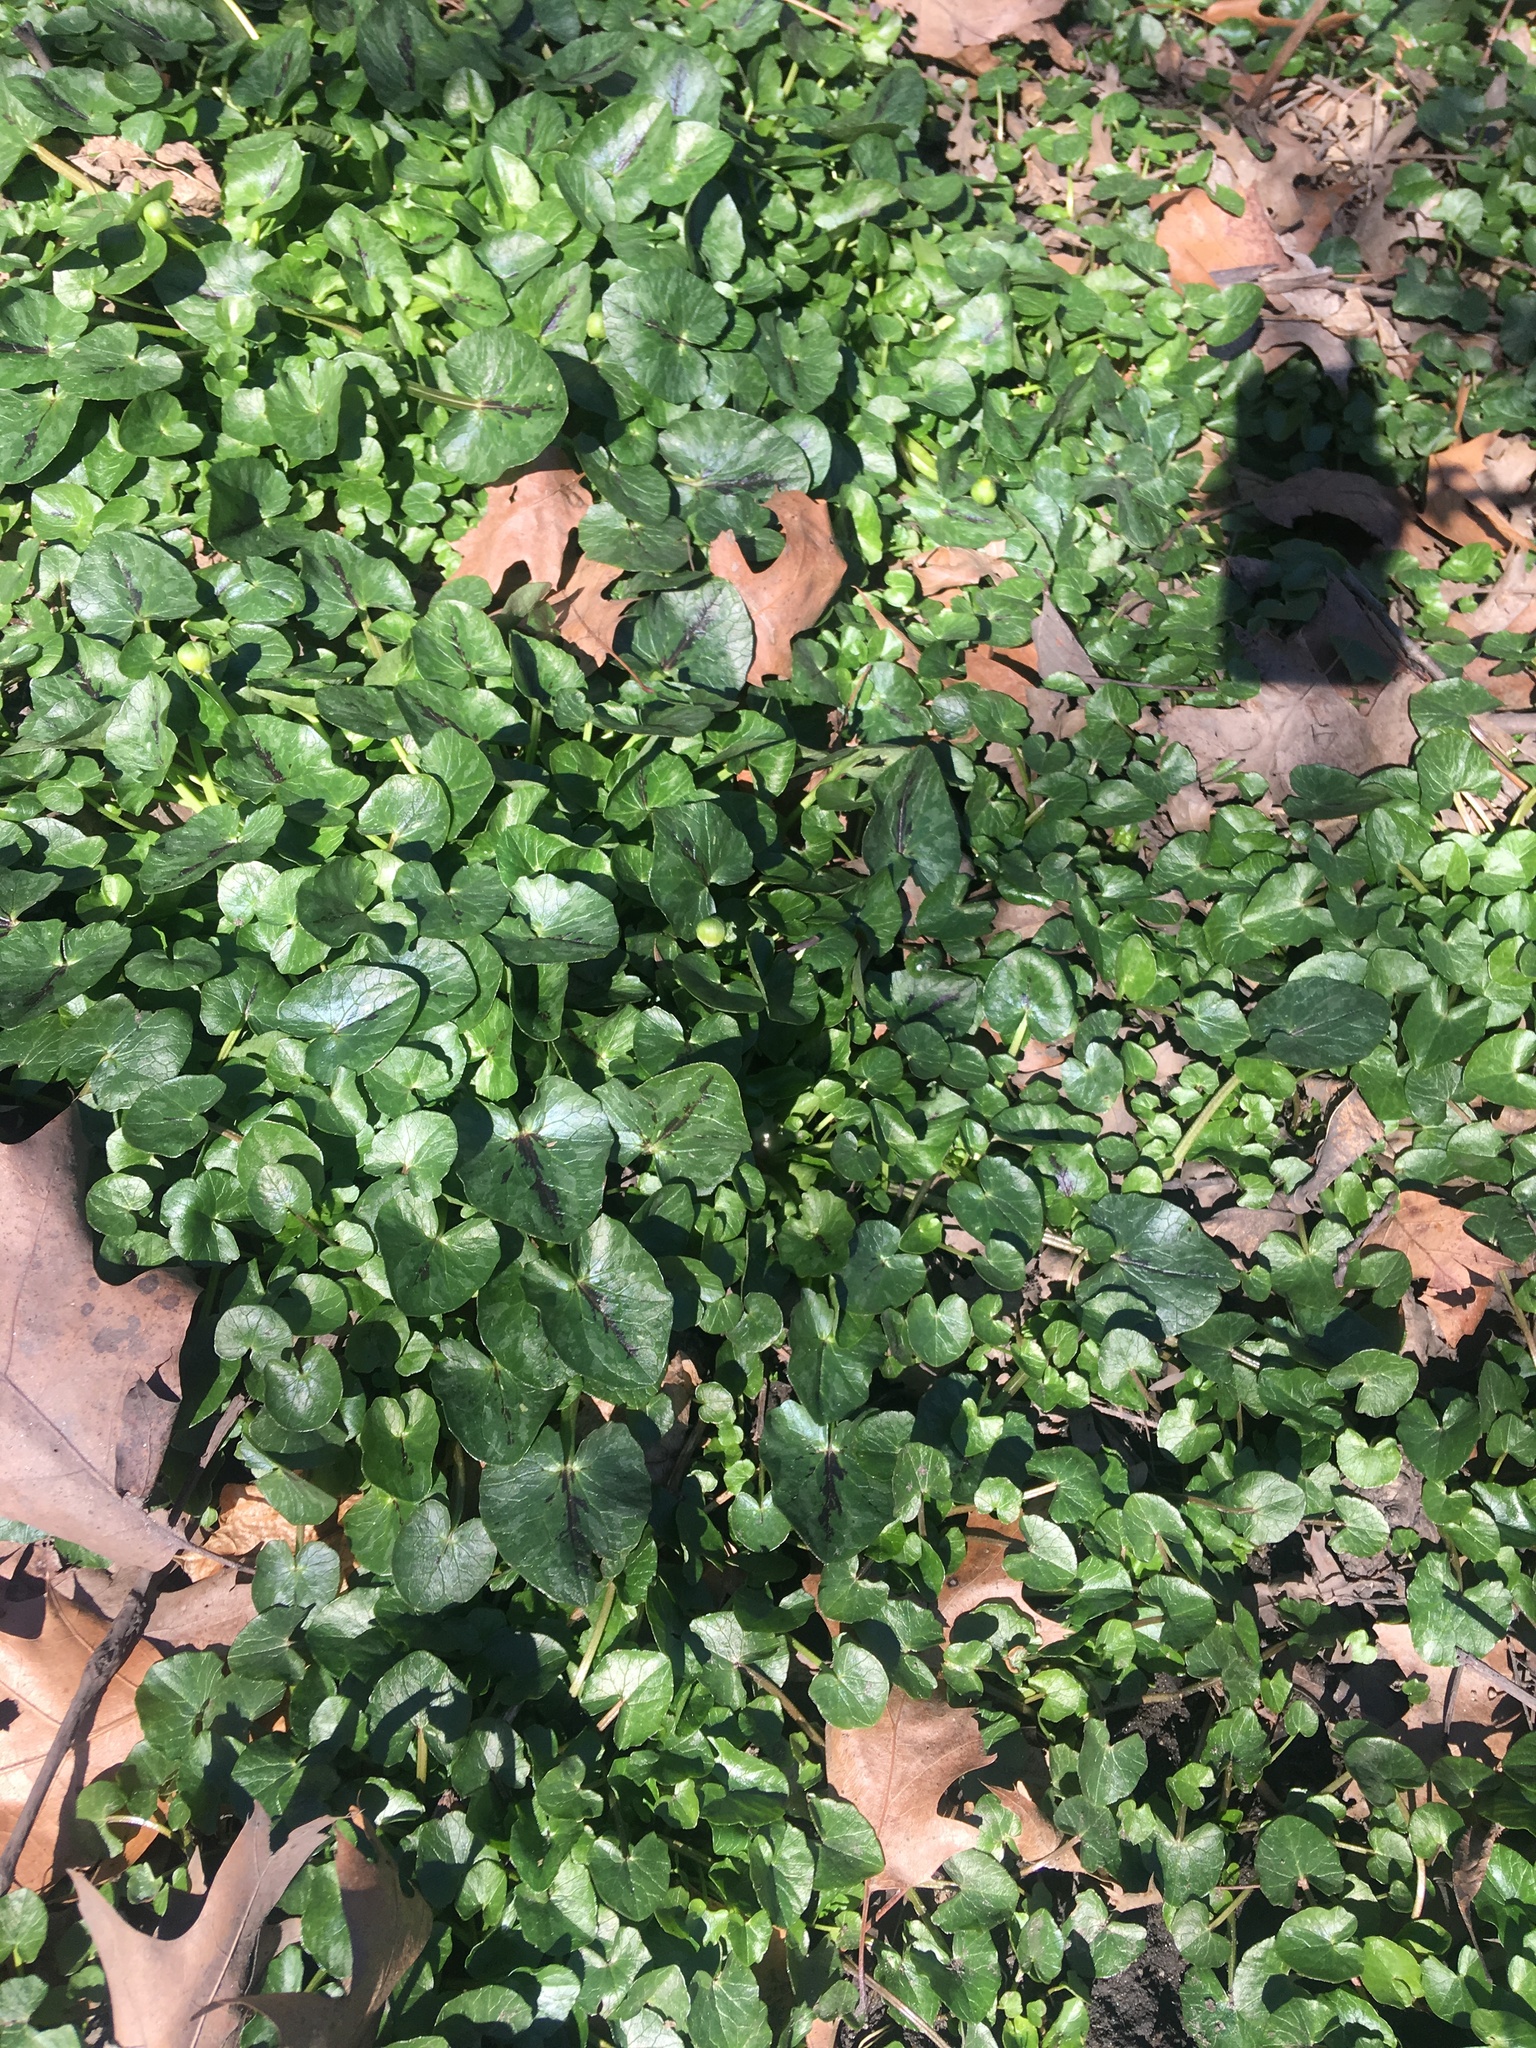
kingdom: Plantae
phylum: Tracheophyta
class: Magnoliopsida
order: Ranunculales
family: Ranunculaceae
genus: Ficaria
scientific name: Ficaria verna
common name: Lesser celandine
